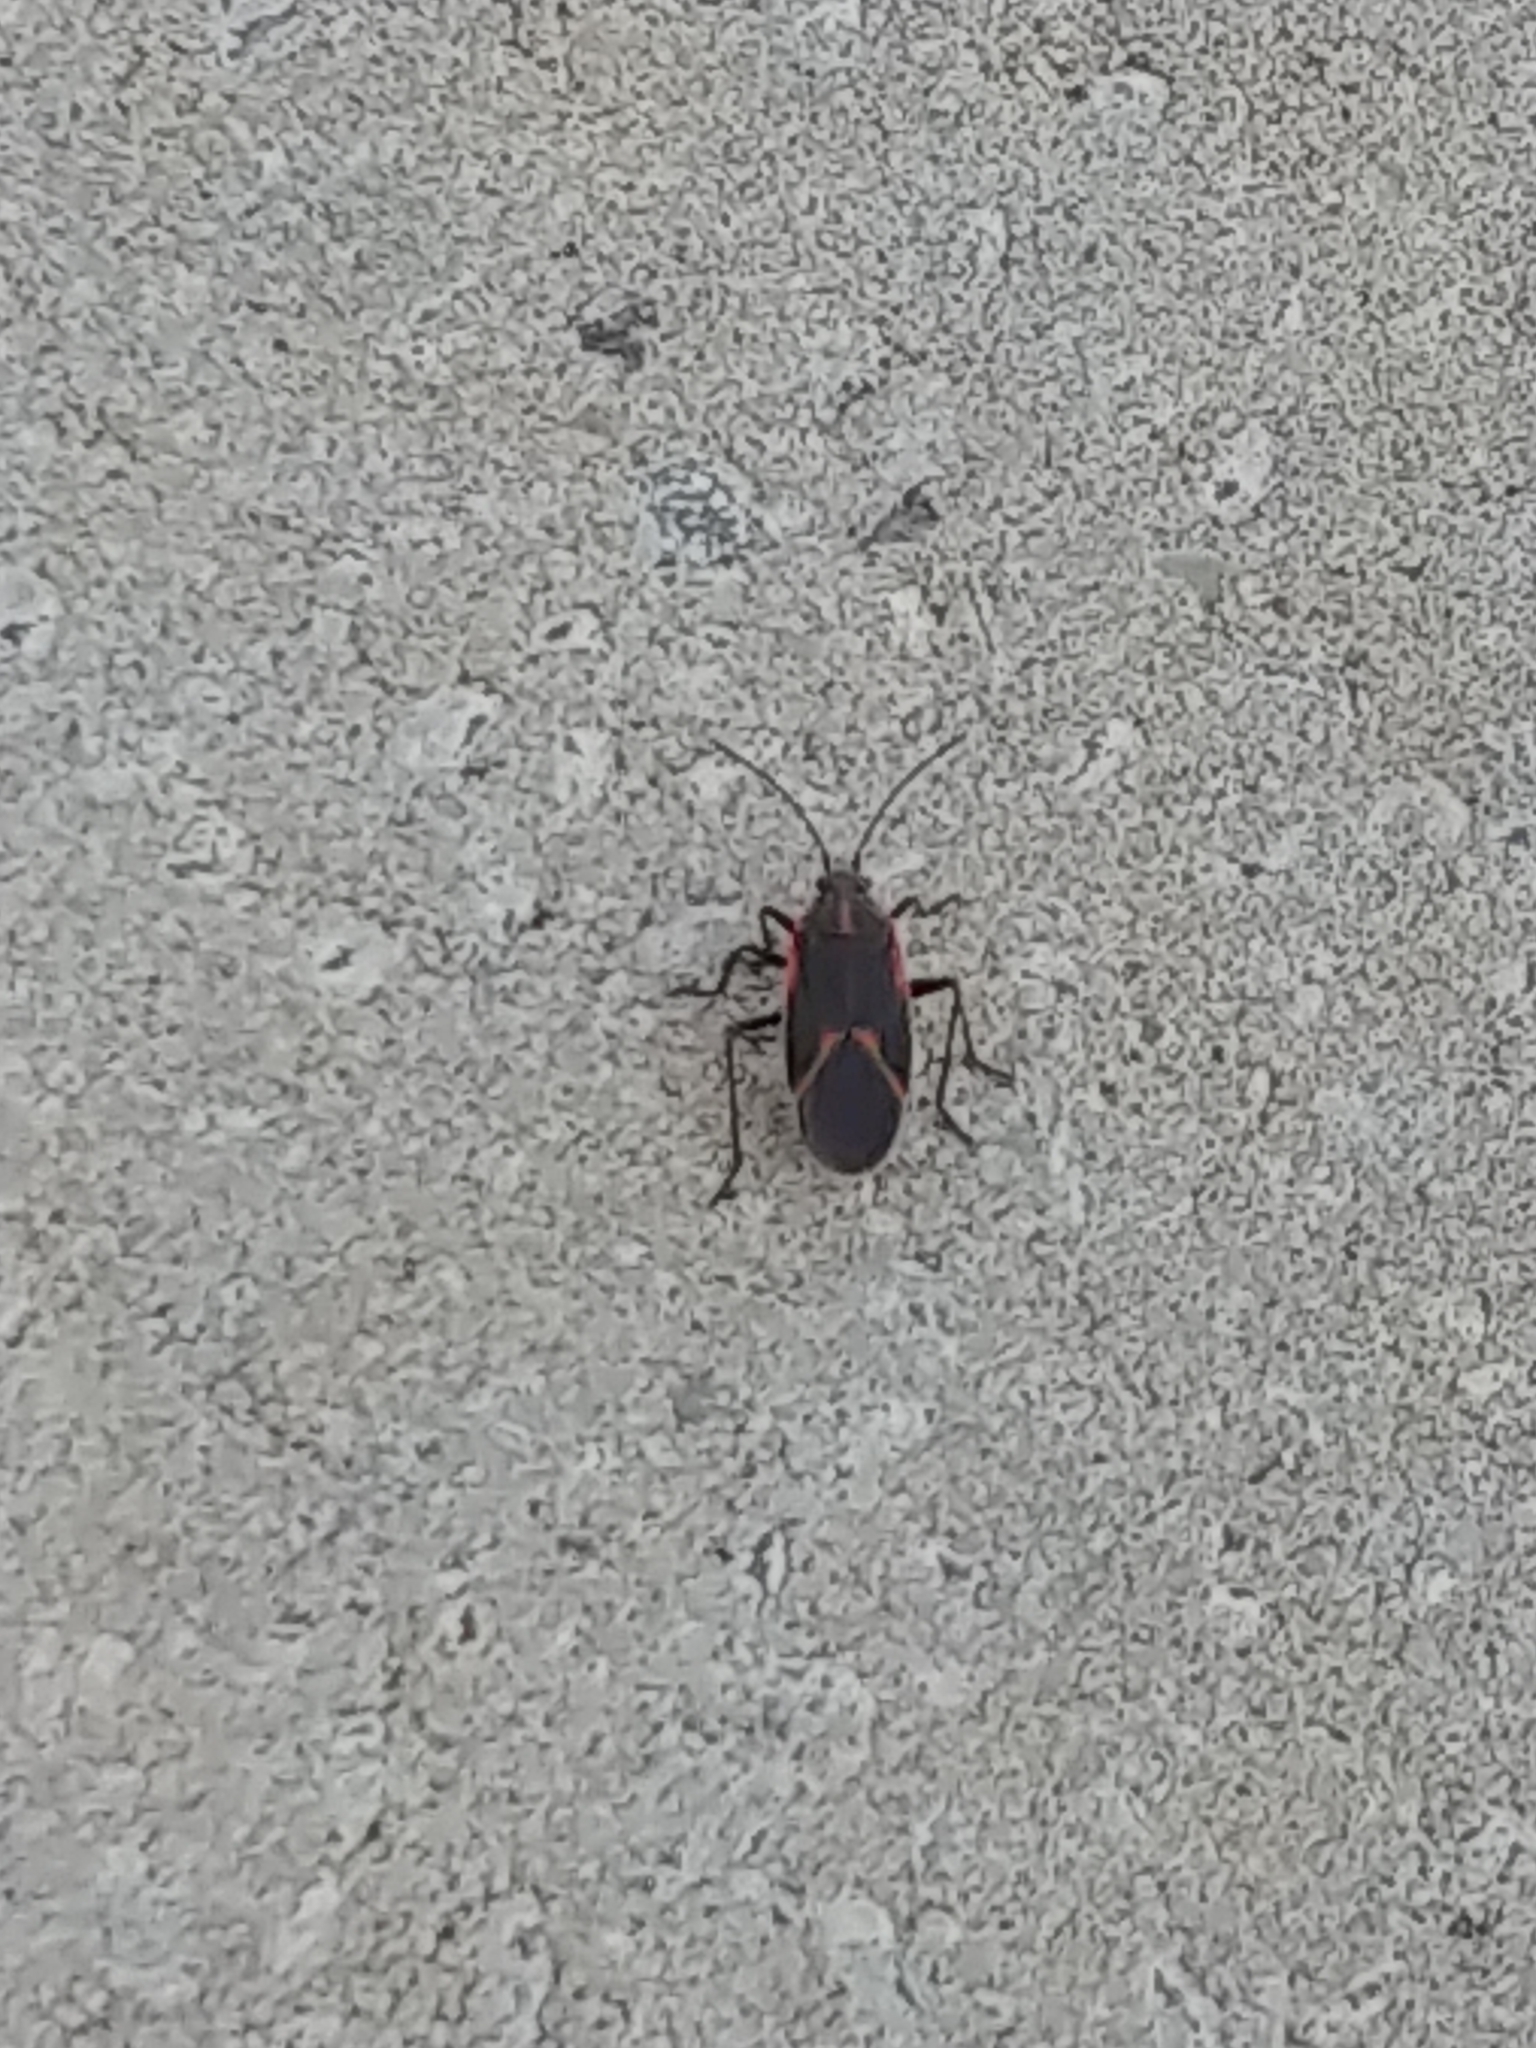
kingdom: Animalia
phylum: Arthropoda
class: Insecta
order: Hemiptera
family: Rhopalidae
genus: Boisea
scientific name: Boisea trivittata
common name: Boxelder bug
